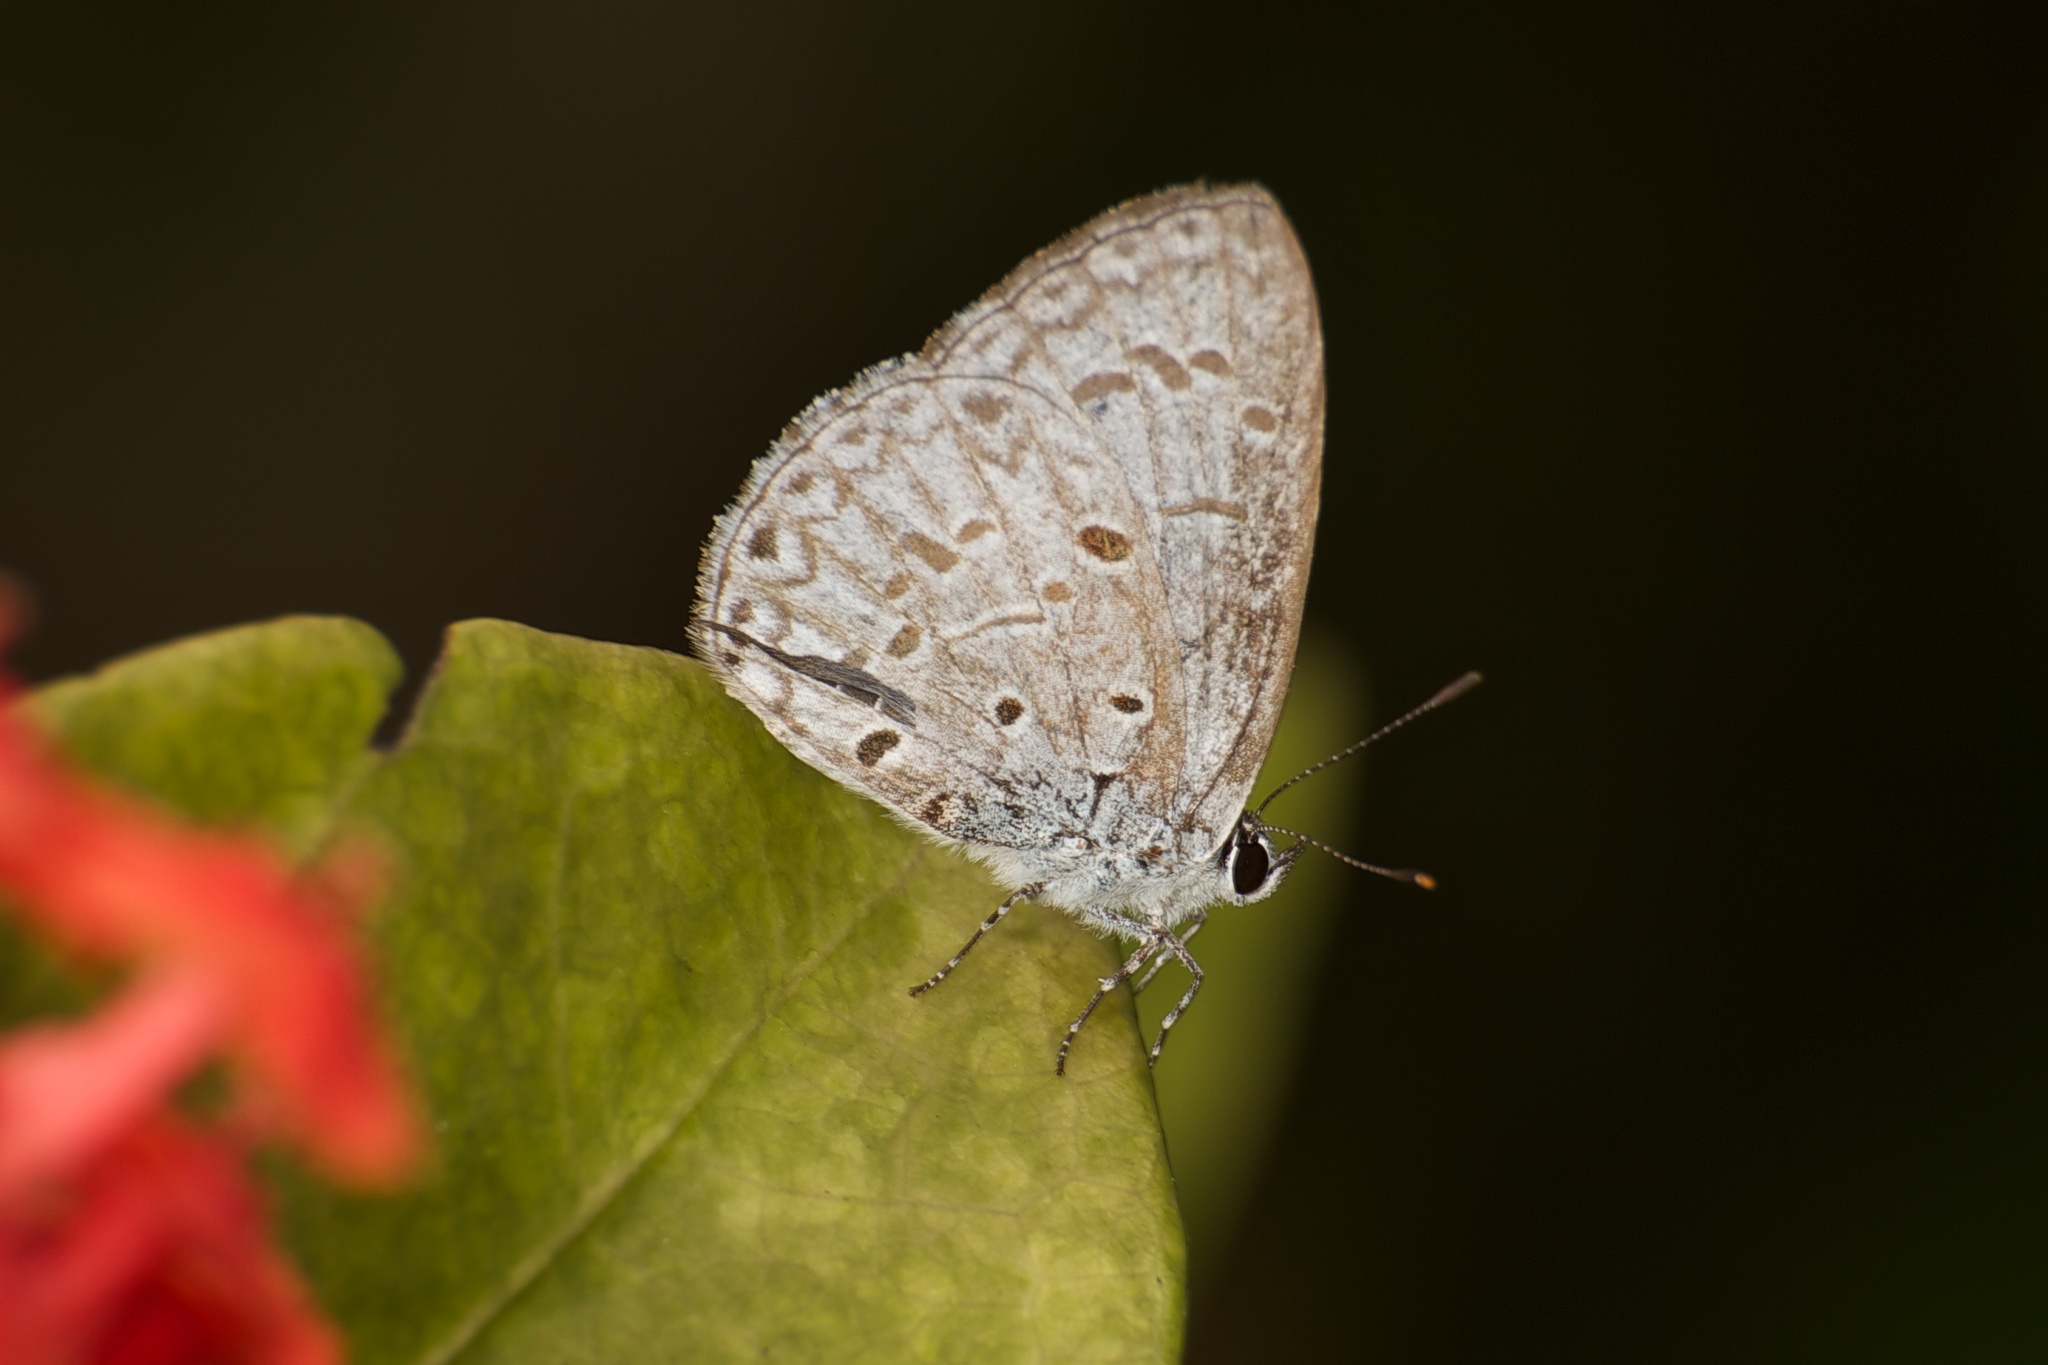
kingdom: Animalia
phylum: Arthropoda
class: Insecta
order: Lepidoptera
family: Lycaenidae
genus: Acytolepis
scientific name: Acytolepis puspa
